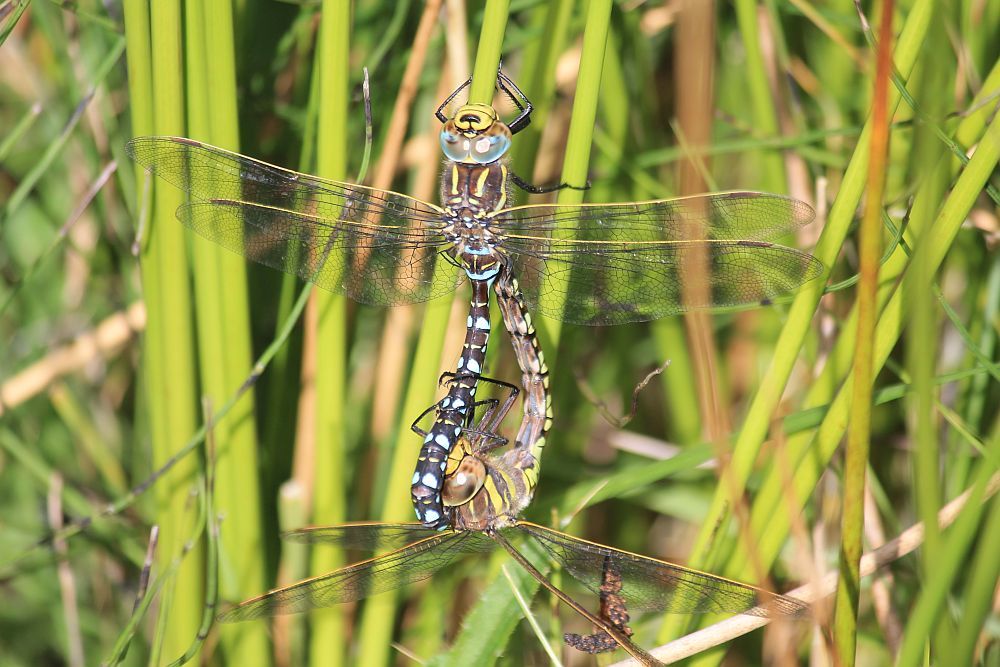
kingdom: Animalia
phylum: Arthropoda
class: Insecta
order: Odonata
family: Aeshnidae
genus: Aeshna
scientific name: Aeshna juncea
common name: Moorland hawker
